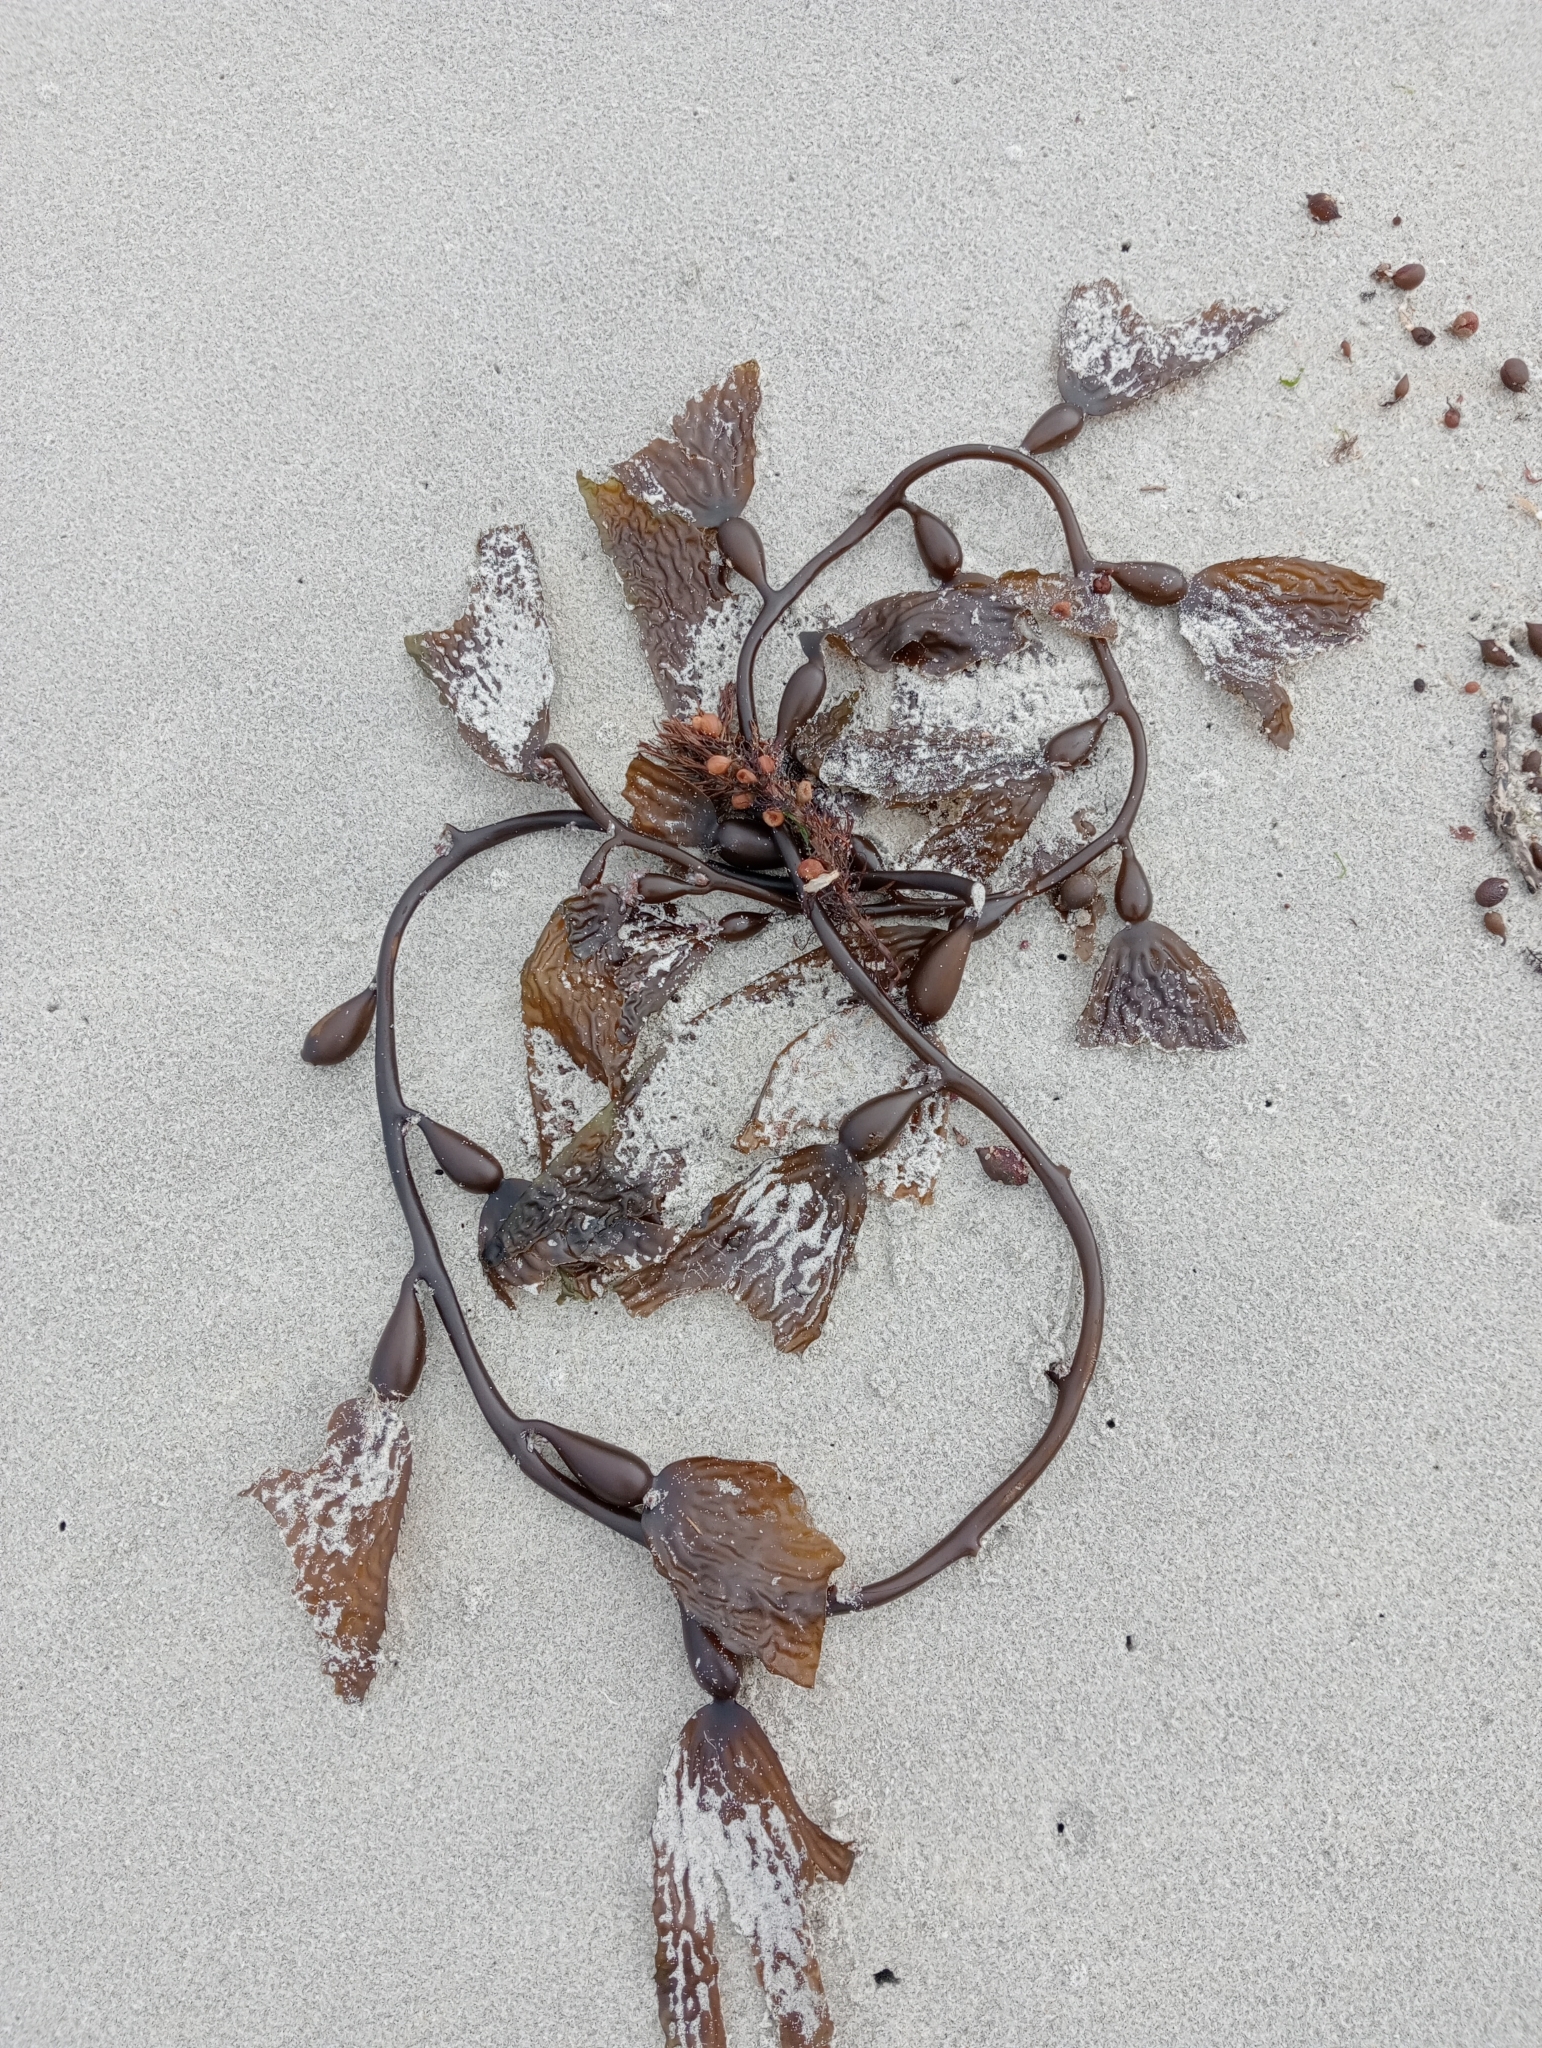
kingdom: Chromista
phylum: Ochrophyta
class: Phaeophyceae
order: Laminariales
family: Laminariaceae
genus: Macrocystis
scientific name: Macrocystis pyrifera
